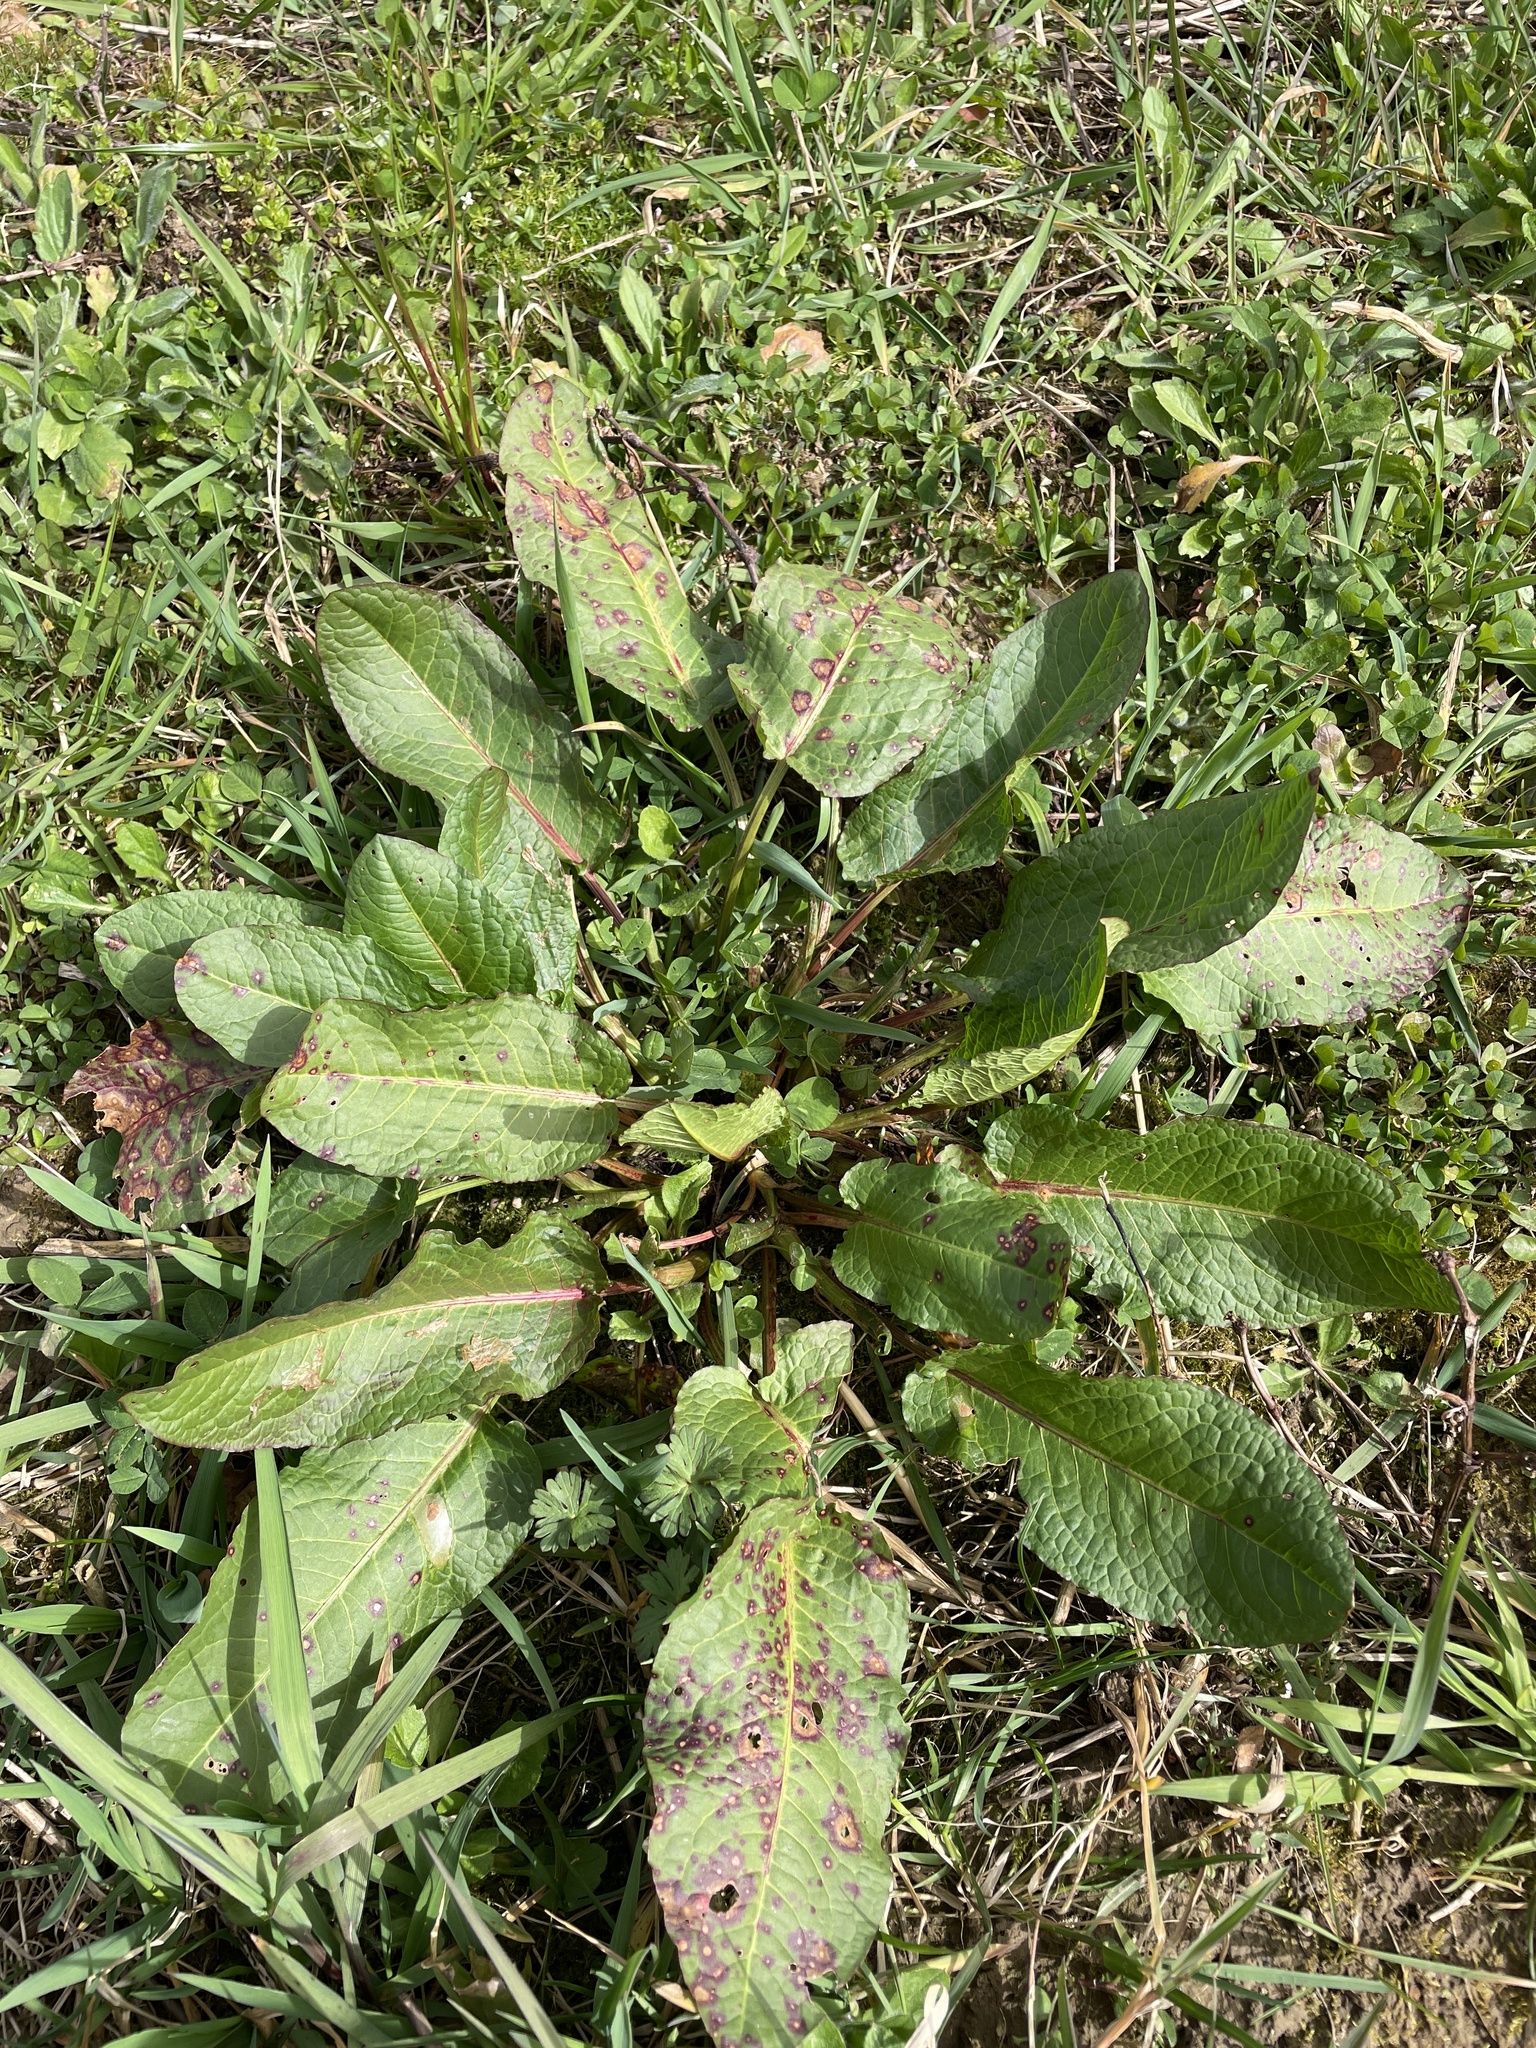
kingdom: Plantae
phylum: Tracheophyta
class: Magnoliopsida
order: Caryophyllales
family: Polygonaceae
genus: Rumex
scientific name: Rumex obtusifolius
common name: Bitter dock
